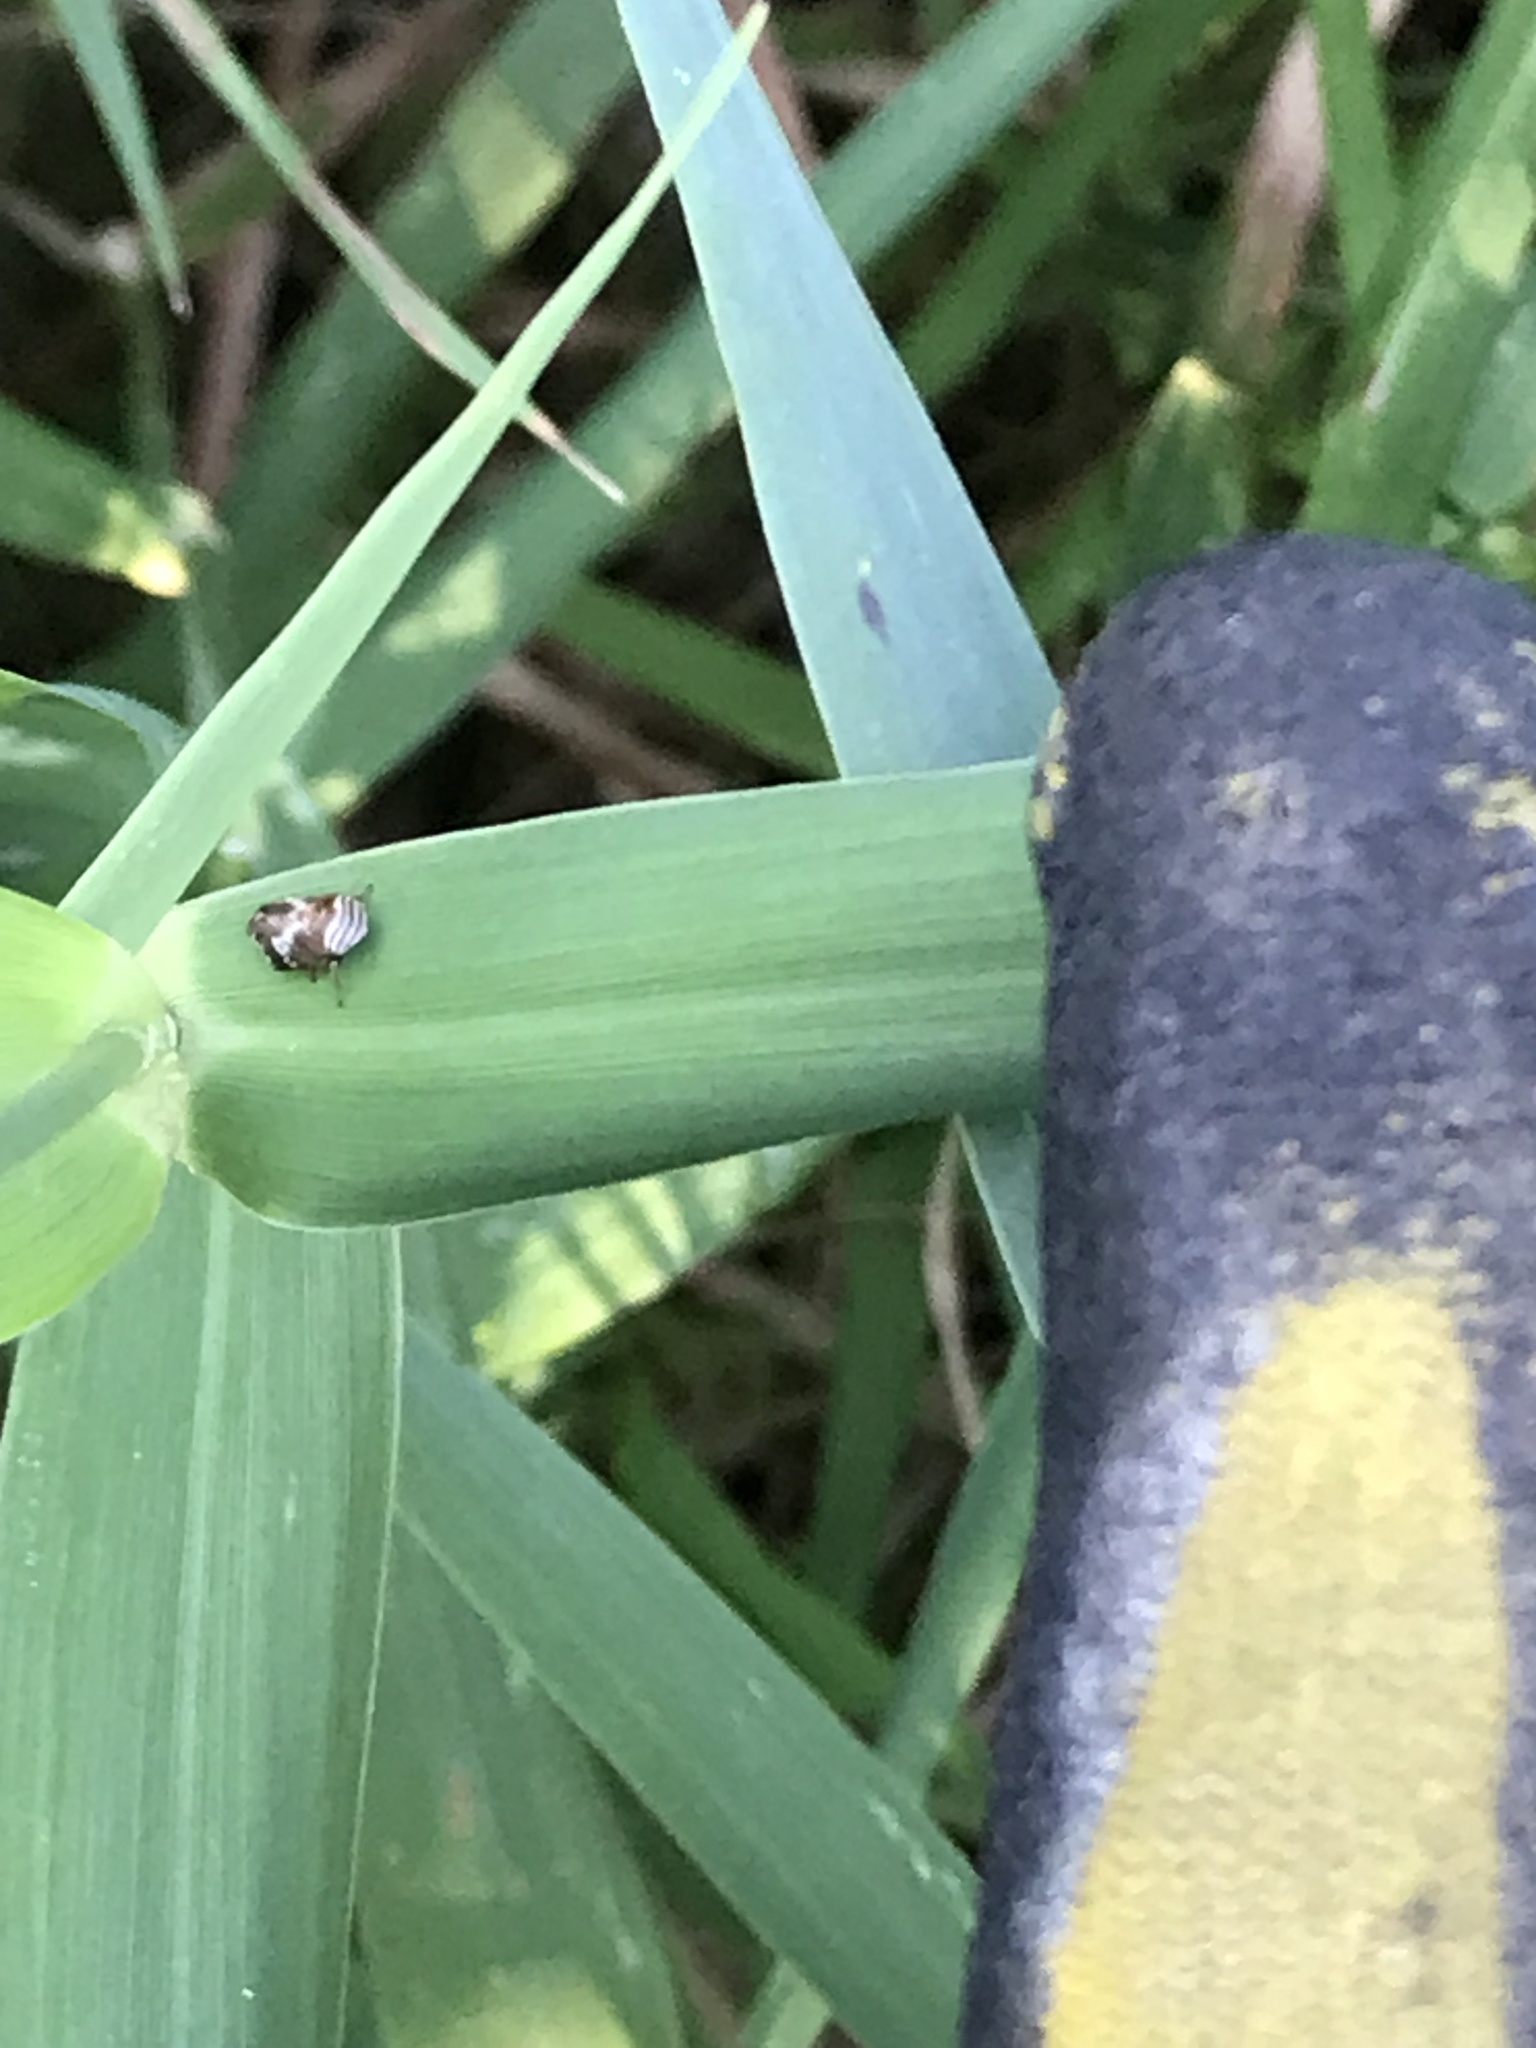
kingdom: Animalia
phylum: Arthropoda
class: Insecta
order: Hemiptera
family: Clastopteridae
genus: Clastoptera
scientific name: Clastoptera obtusa
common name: Alder spittlebug
